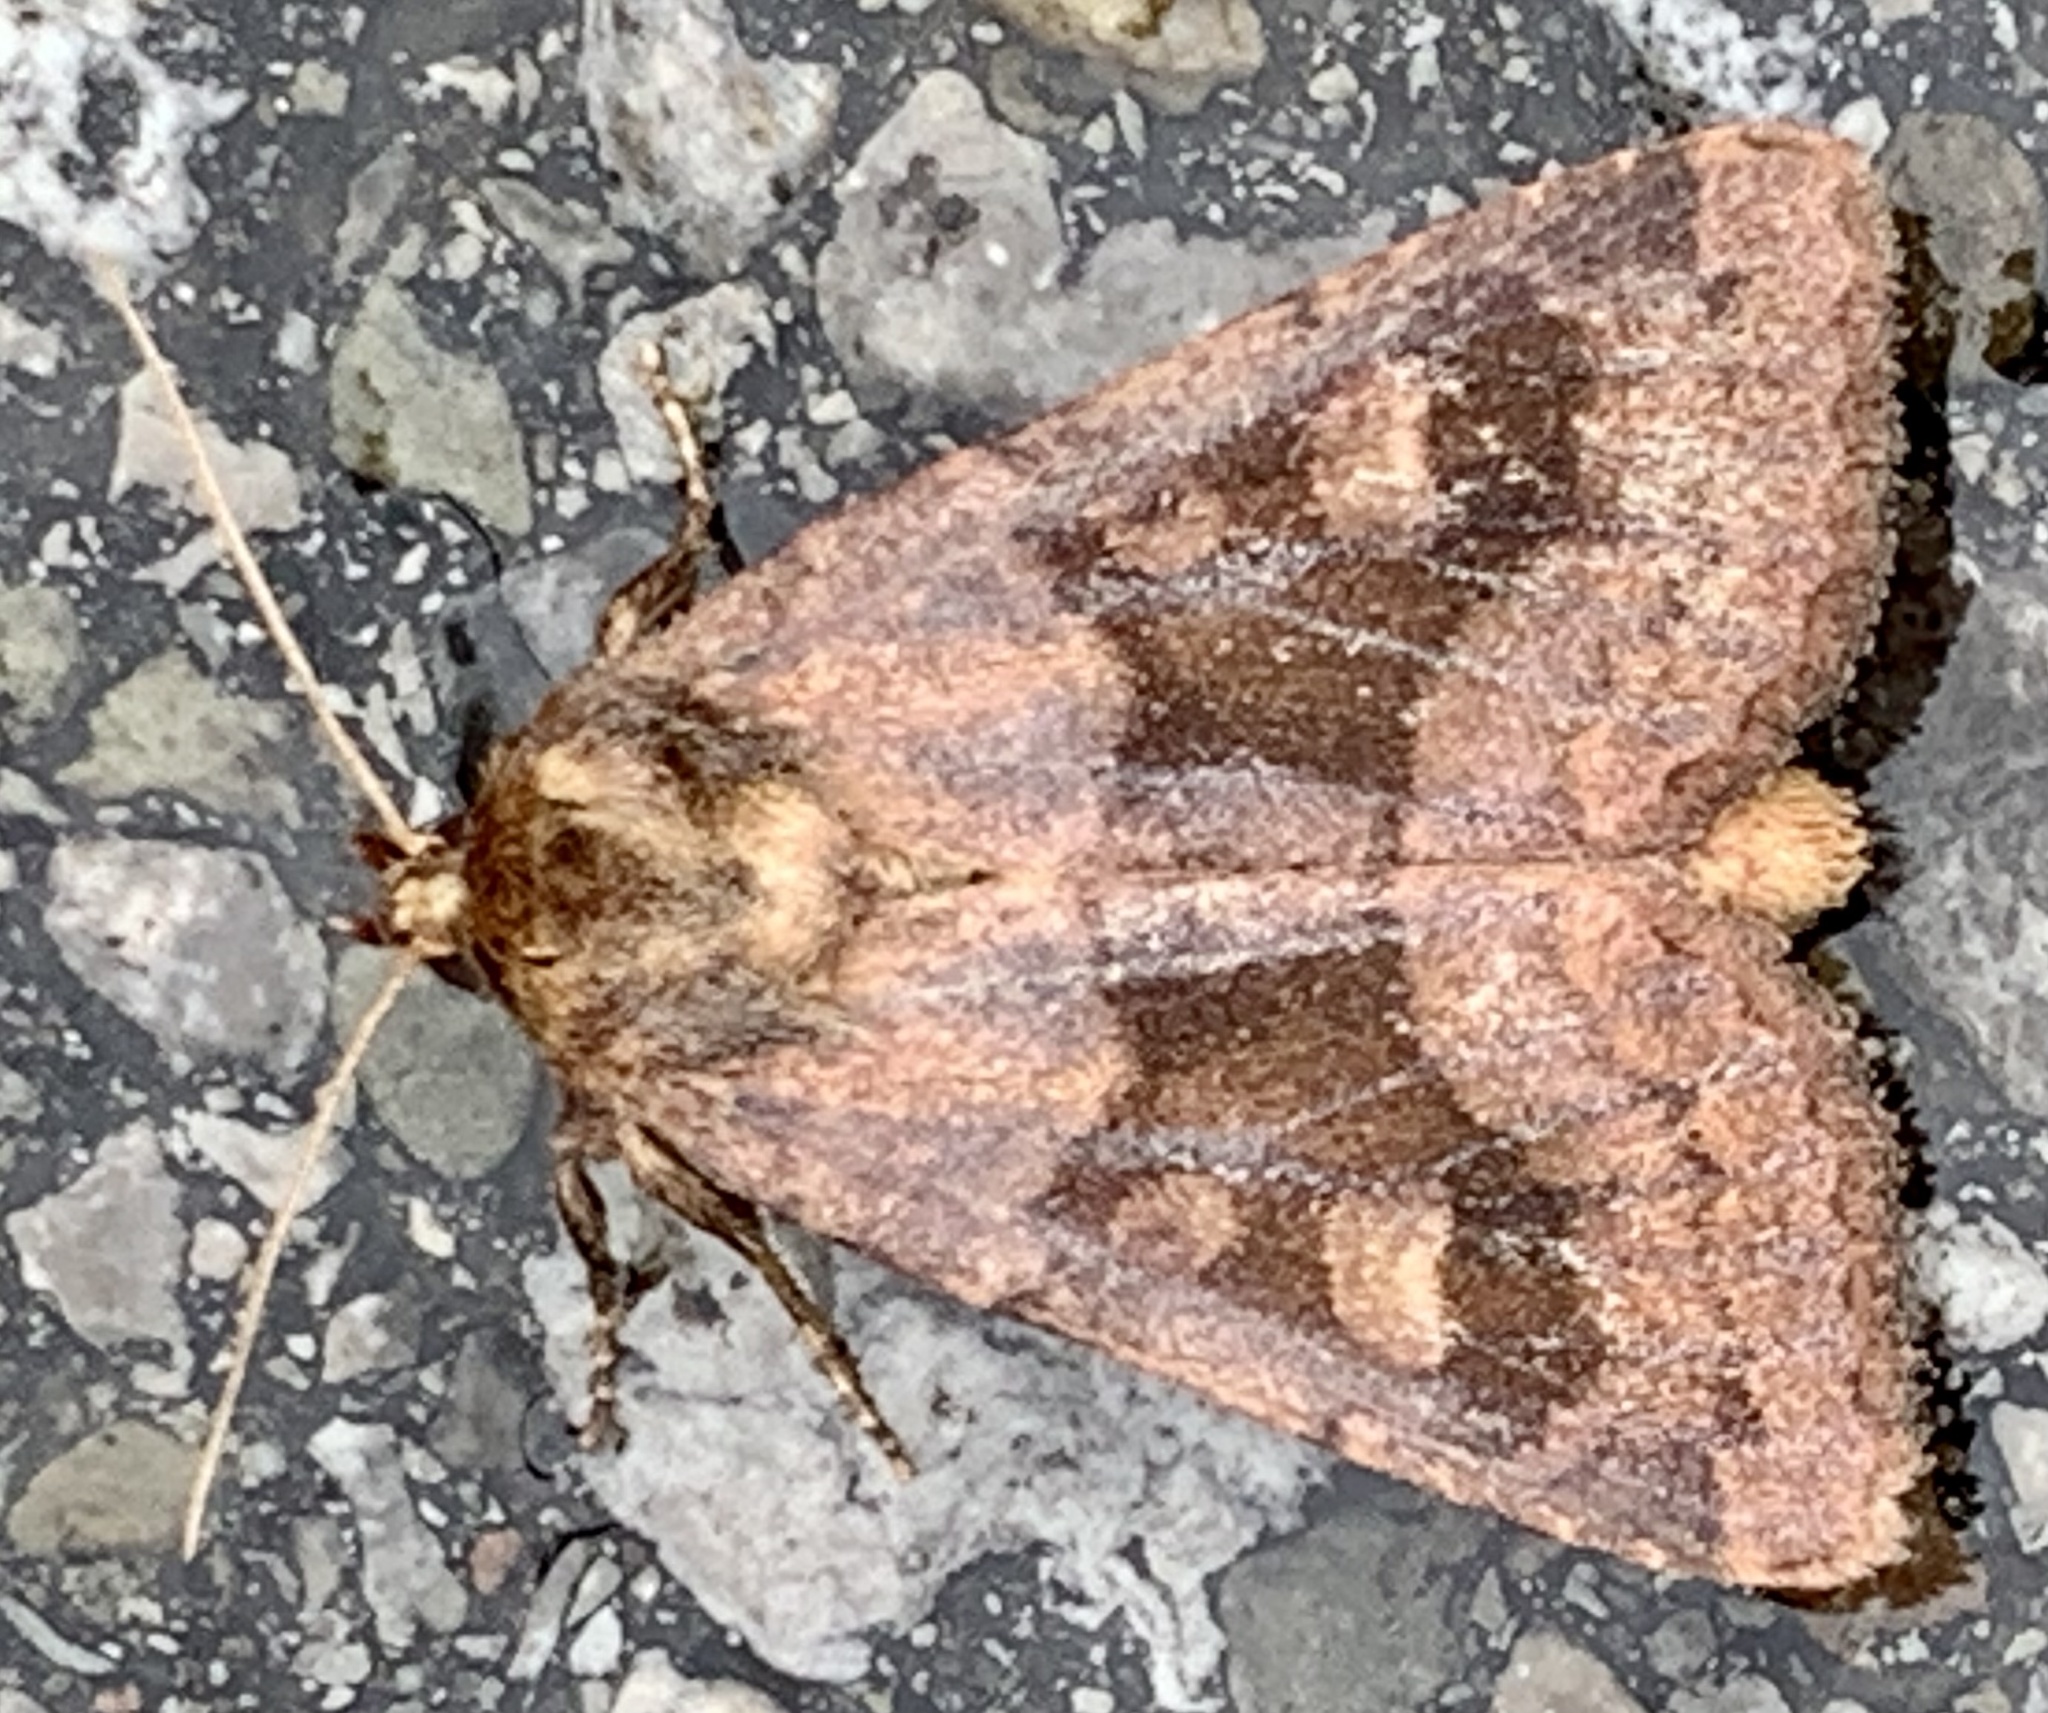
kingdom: Animalia
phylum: Arthropoda
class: Insecta
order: Lepidoptera
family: Noctuidae
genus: Nephelodes
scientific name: Nephelodes minians
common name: Bronzed cutworm
